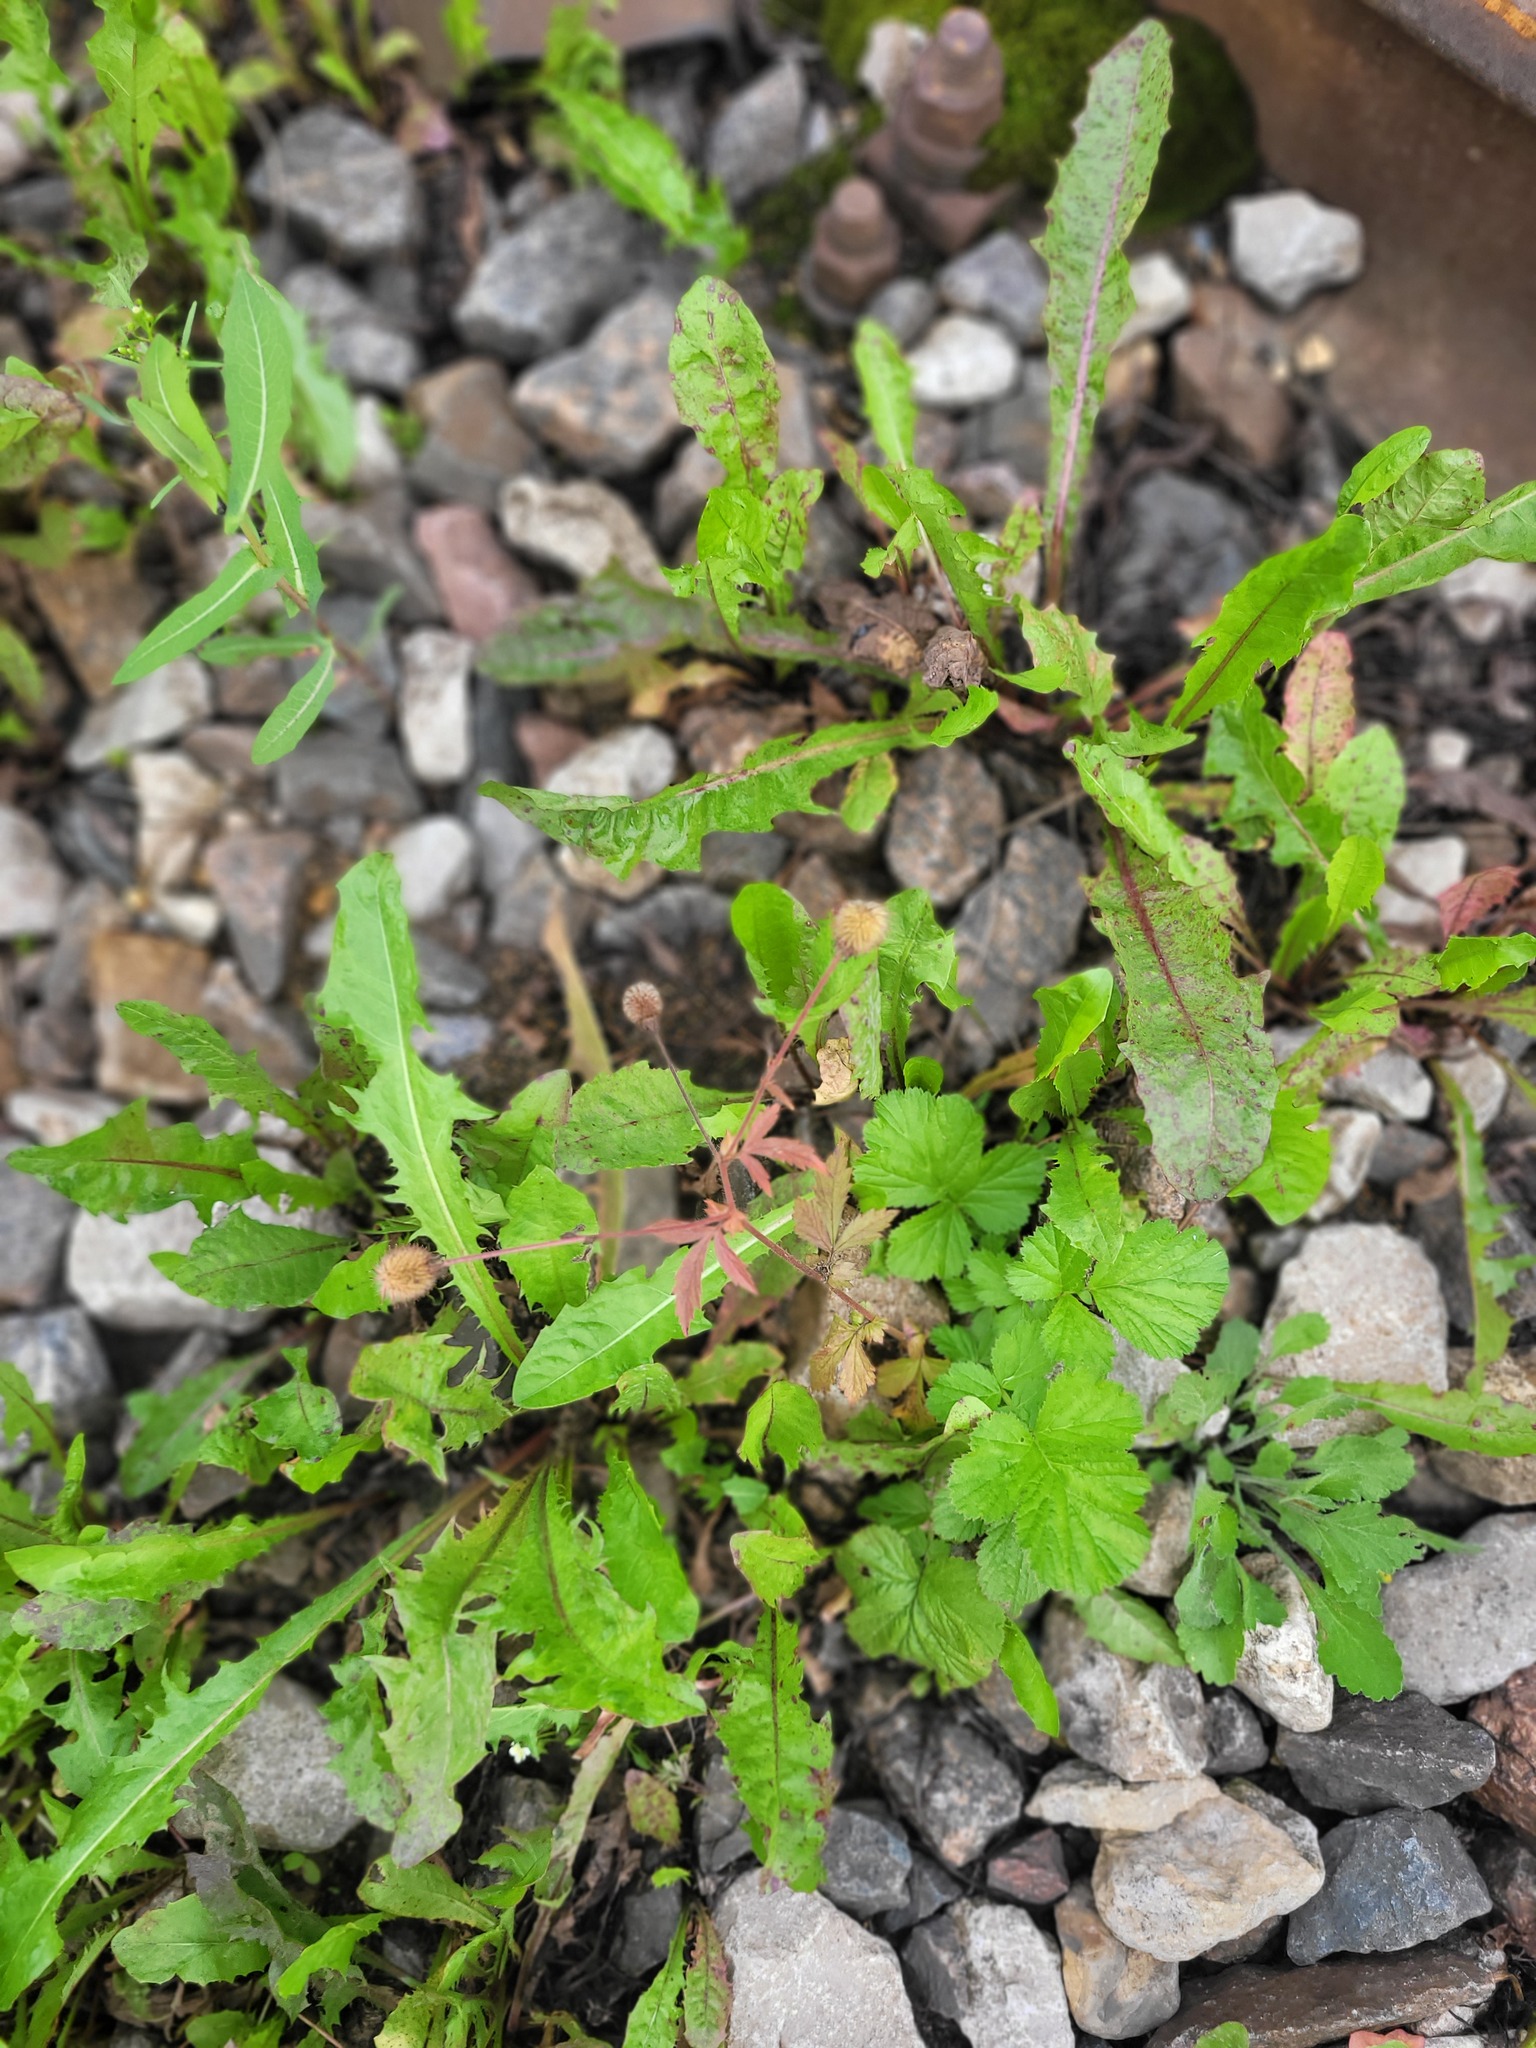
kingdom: Plantae
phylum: Tracheophyta
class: Magnoliopsida
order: Rosales
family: Rosaceae
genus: Geum
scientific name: Geum aleppicum
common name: Yellow avens
